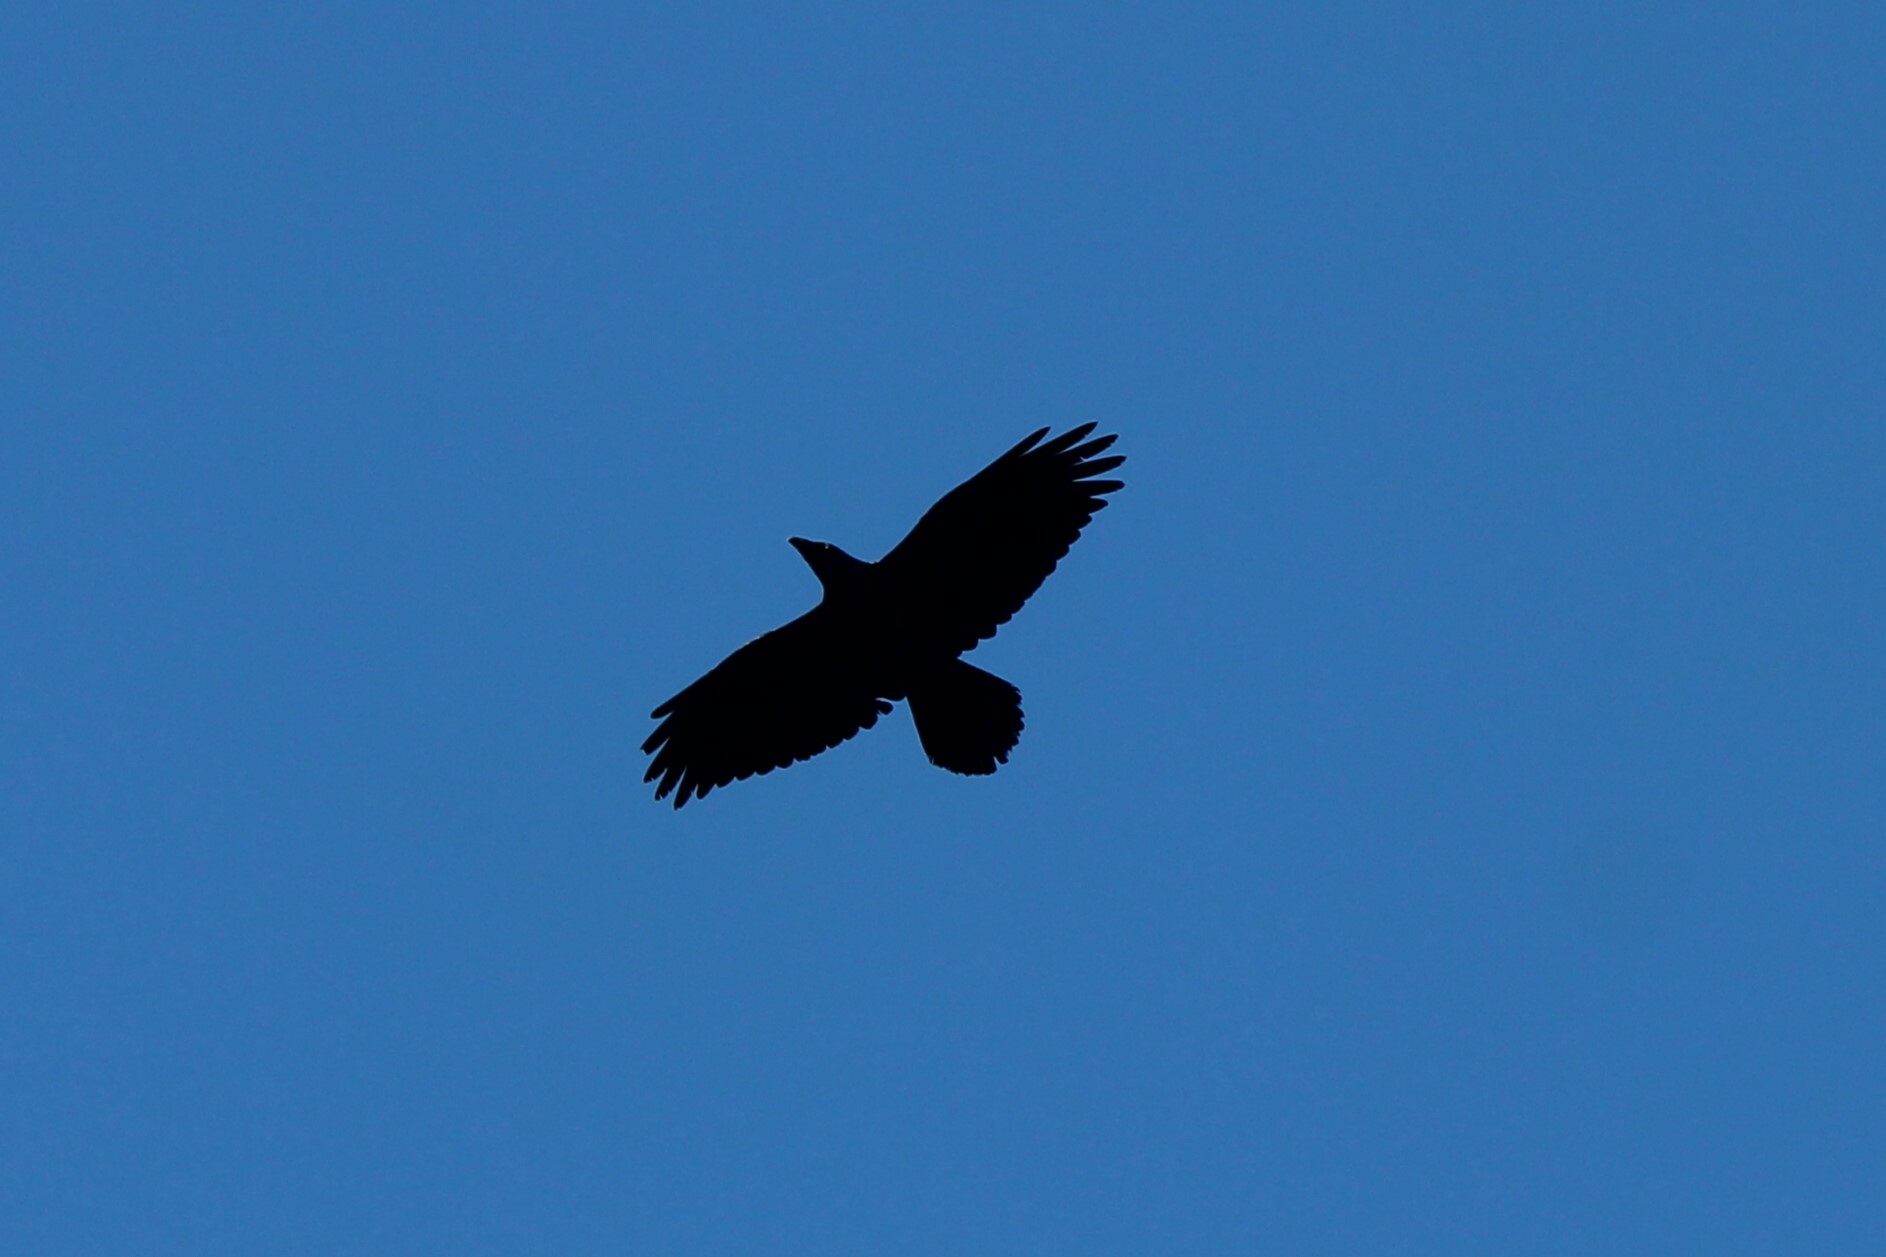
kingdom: Animalia
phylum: Chordata
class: Aves
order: Passeriformes
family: Corvidae
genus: Corvus
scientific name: Corvus corax
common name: Common raven
